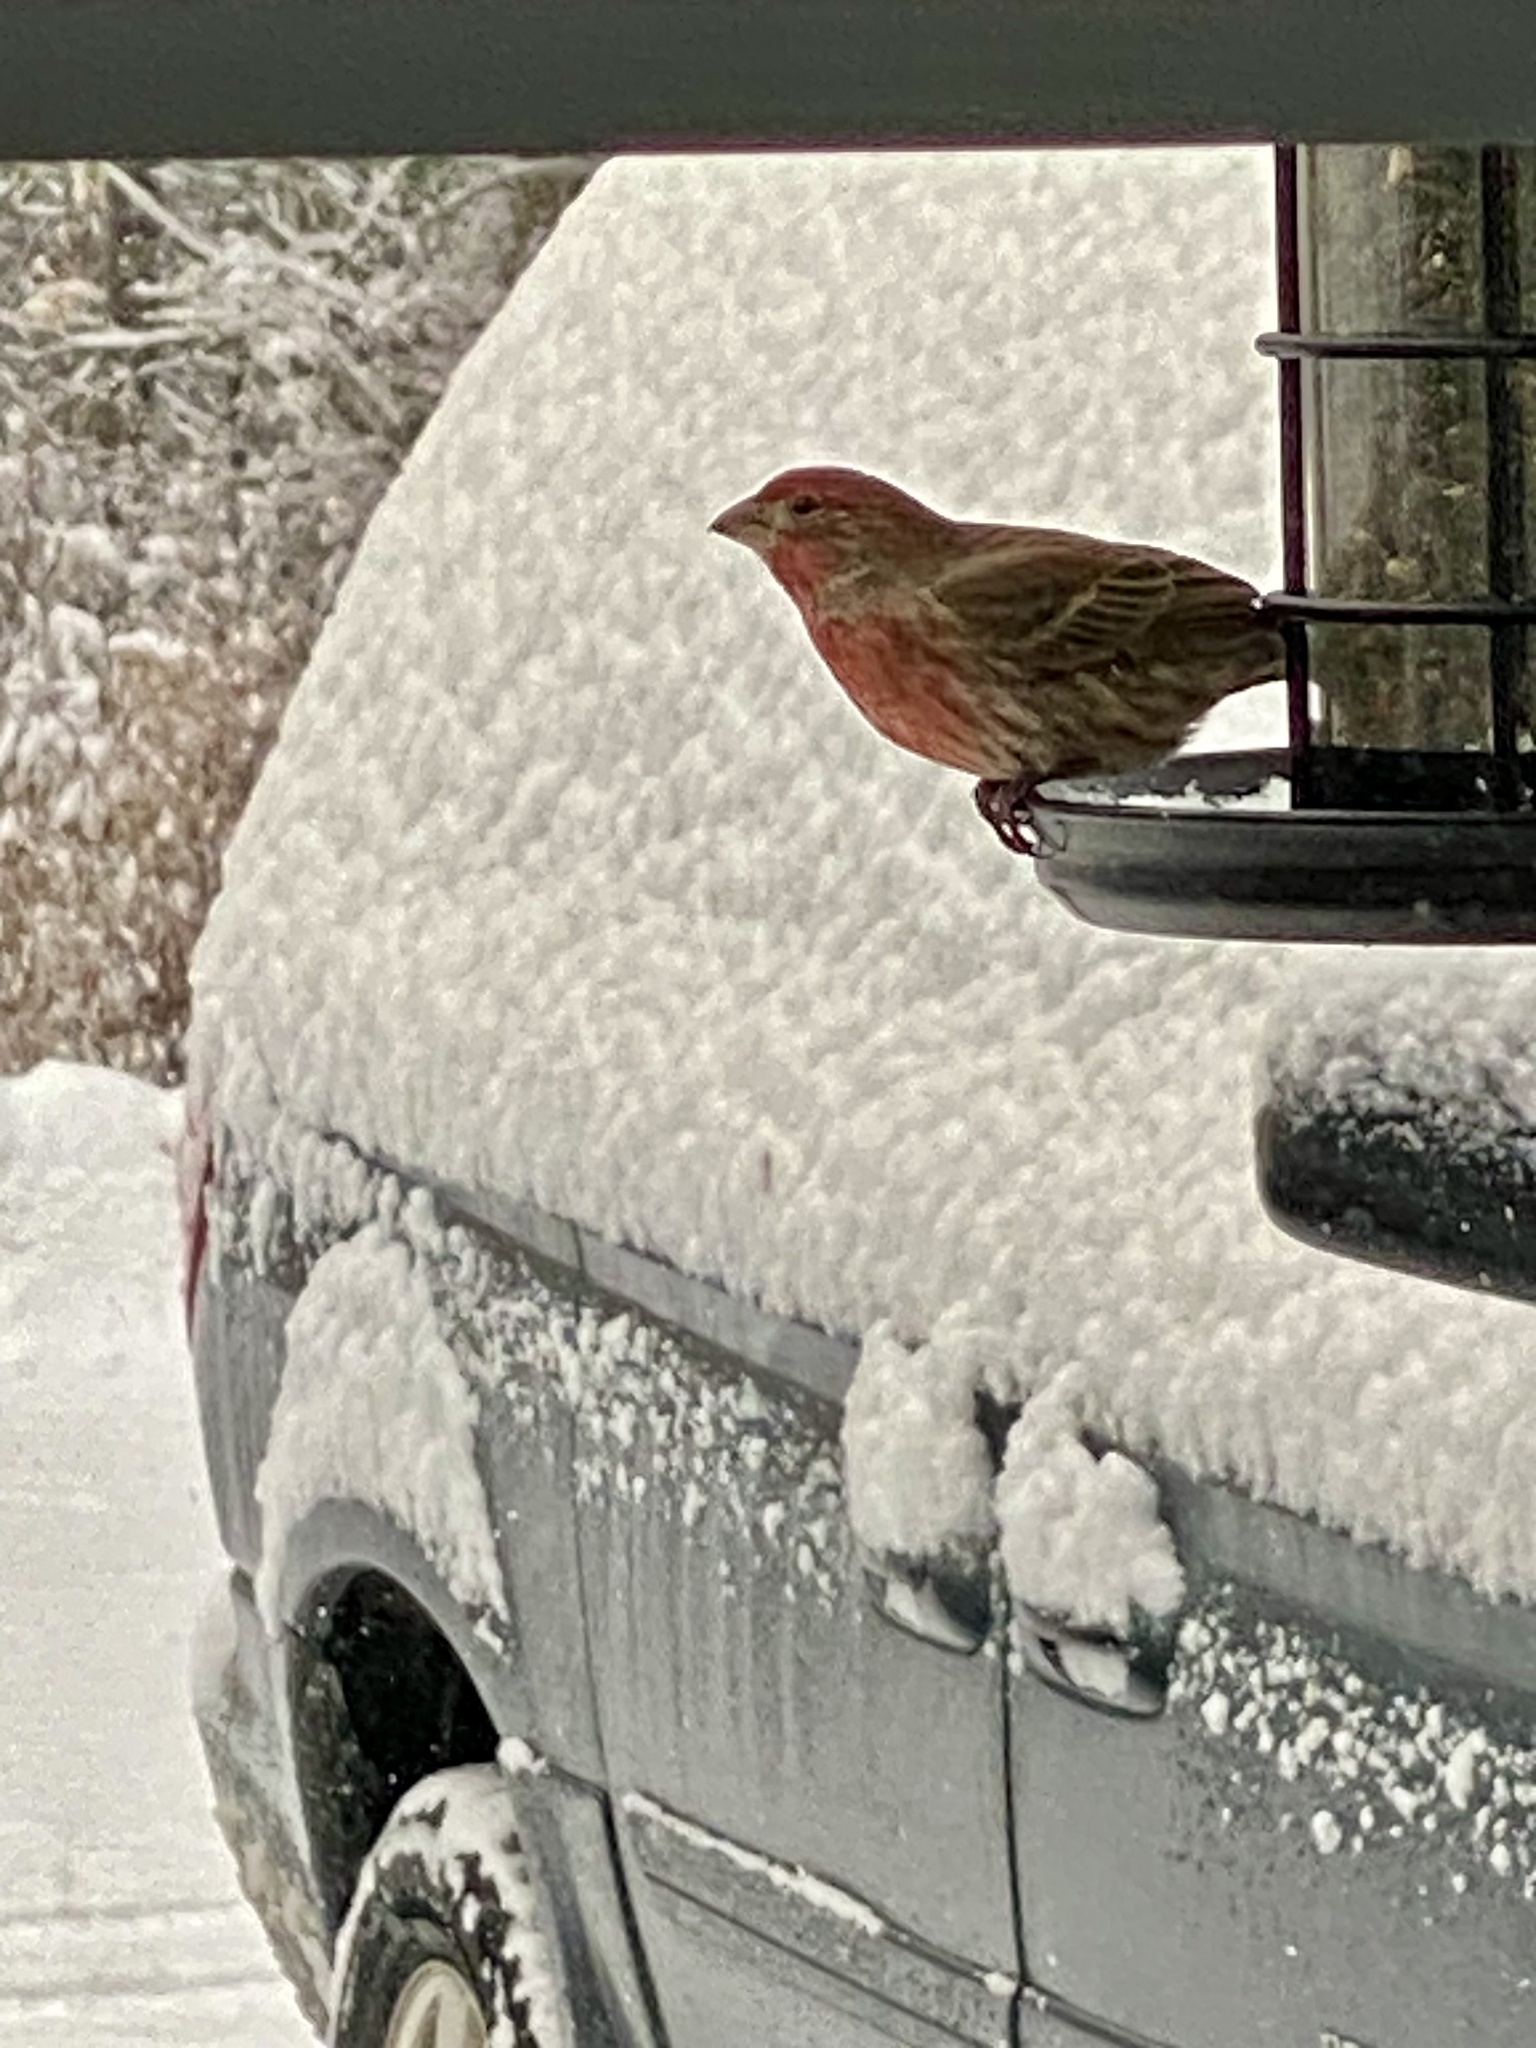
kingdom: Animalia
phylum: Chordata
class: Aves
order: Passeriformes
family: Fringillidae
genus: Haemorhous
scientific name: Haemorhous mexicanus
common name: House finch
